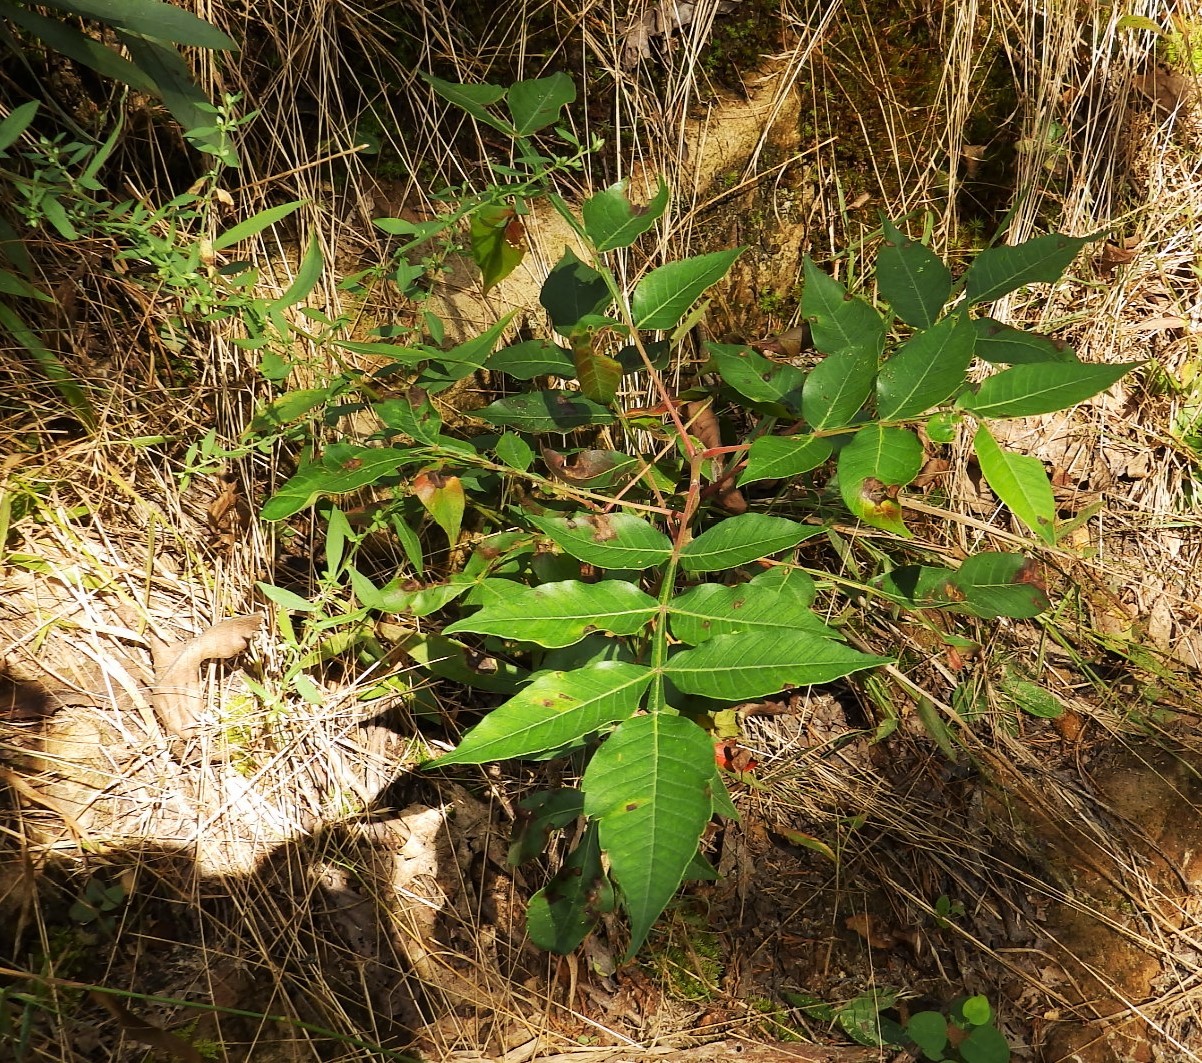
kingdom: Plantae
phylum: Tracheophyta
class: Magnoliopsida
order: Sapindales
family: Anacardiaceae
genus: Rhus
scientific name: Rhus copallina
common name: Shining sumac
